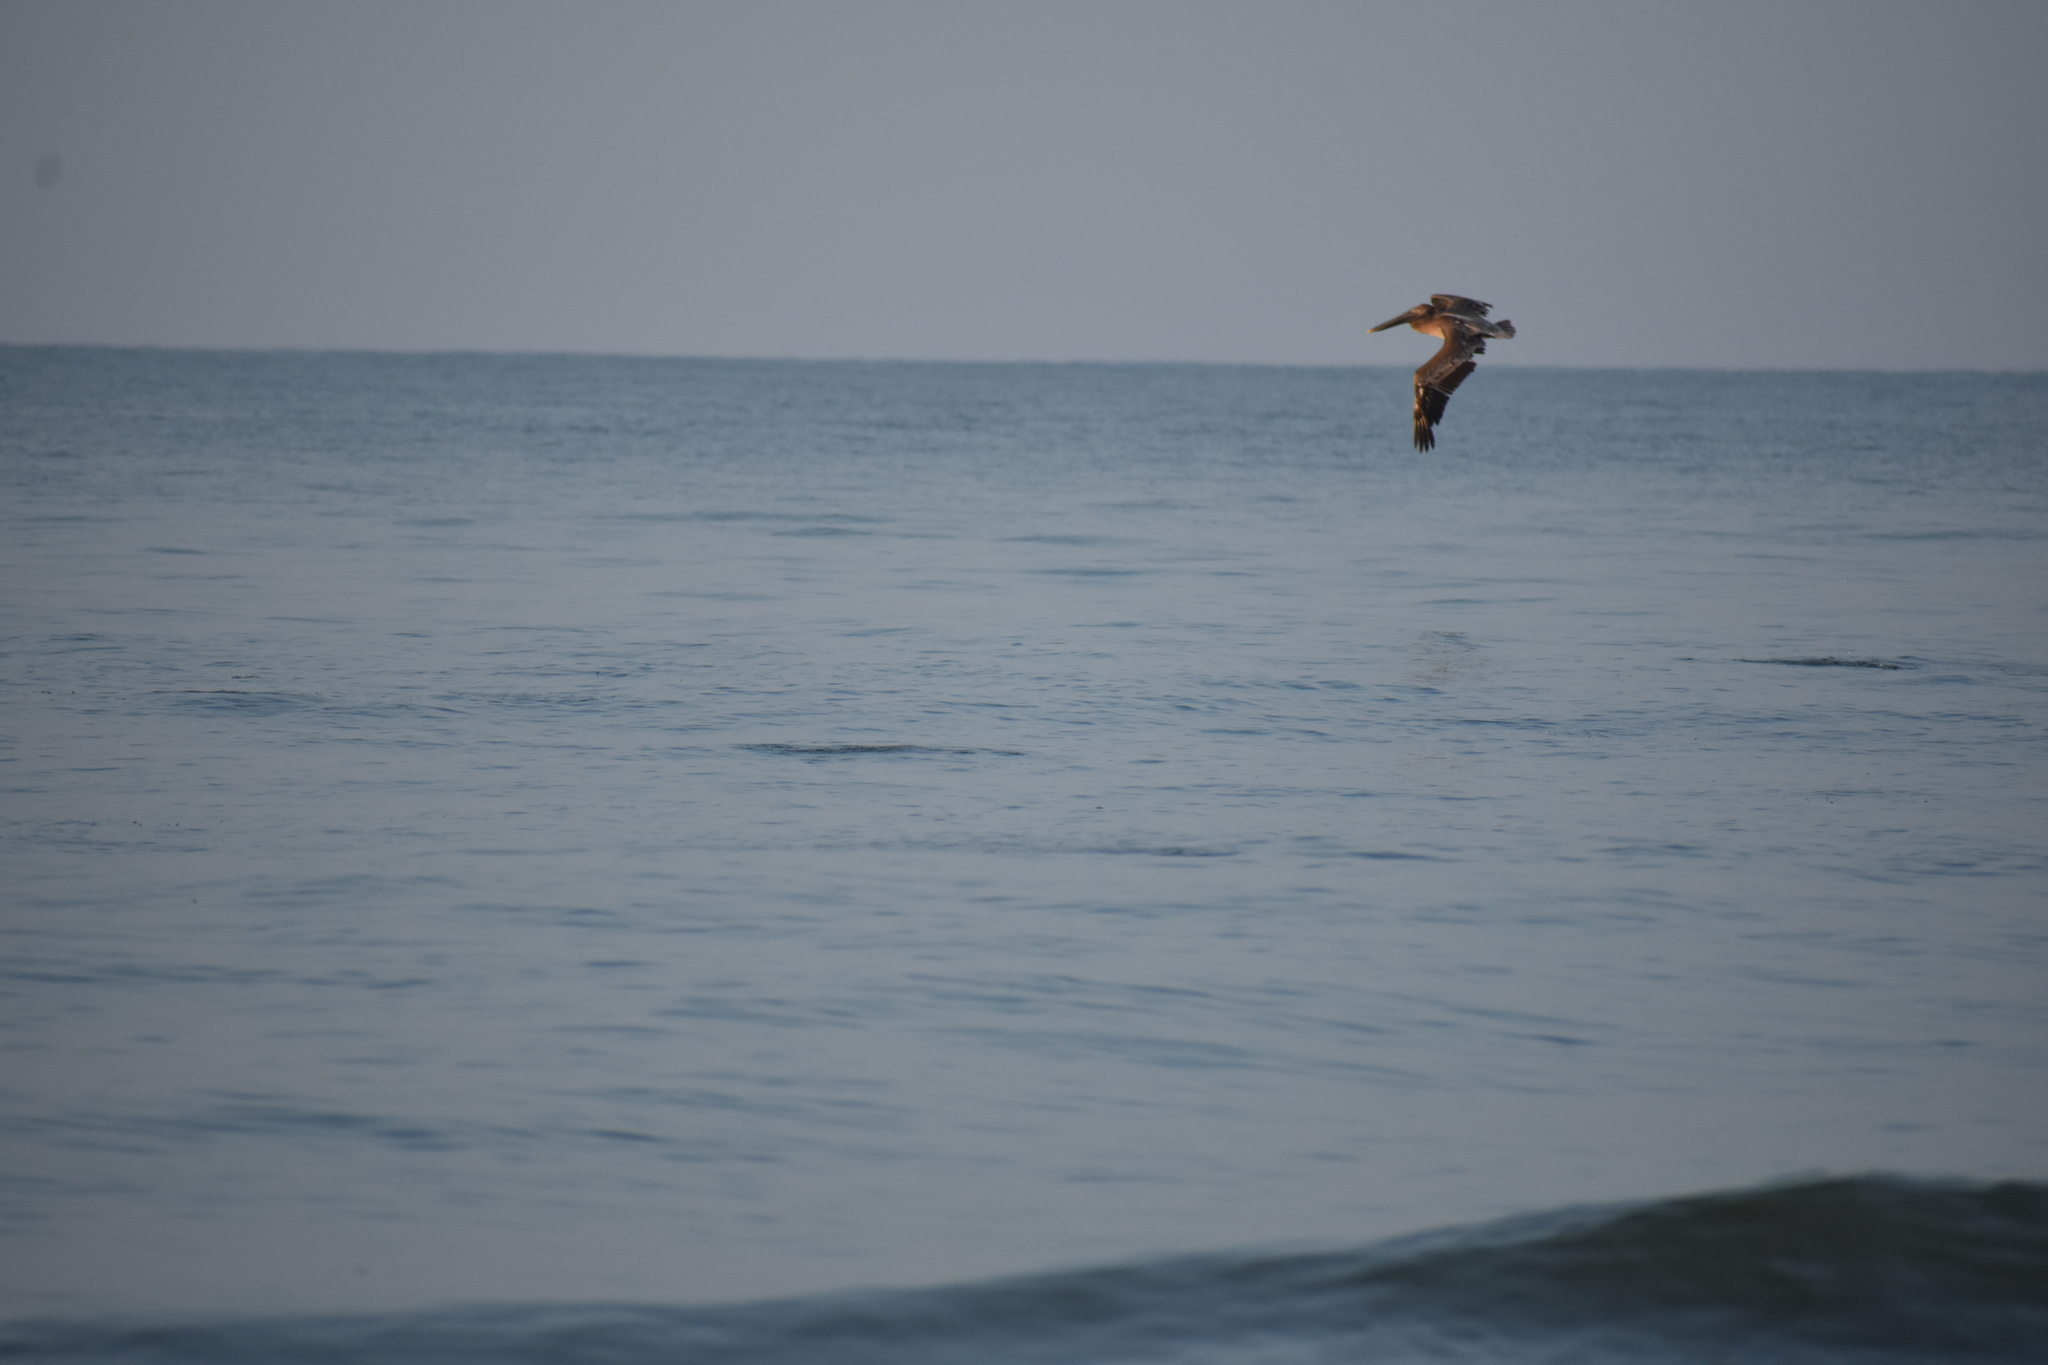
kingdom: Animalia
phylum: Chordata
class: Aves
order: Pelecaniformes
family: Pelecanidae
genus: Pelecanus
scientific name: Pelecanus occidentalis
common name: Brown pelican
